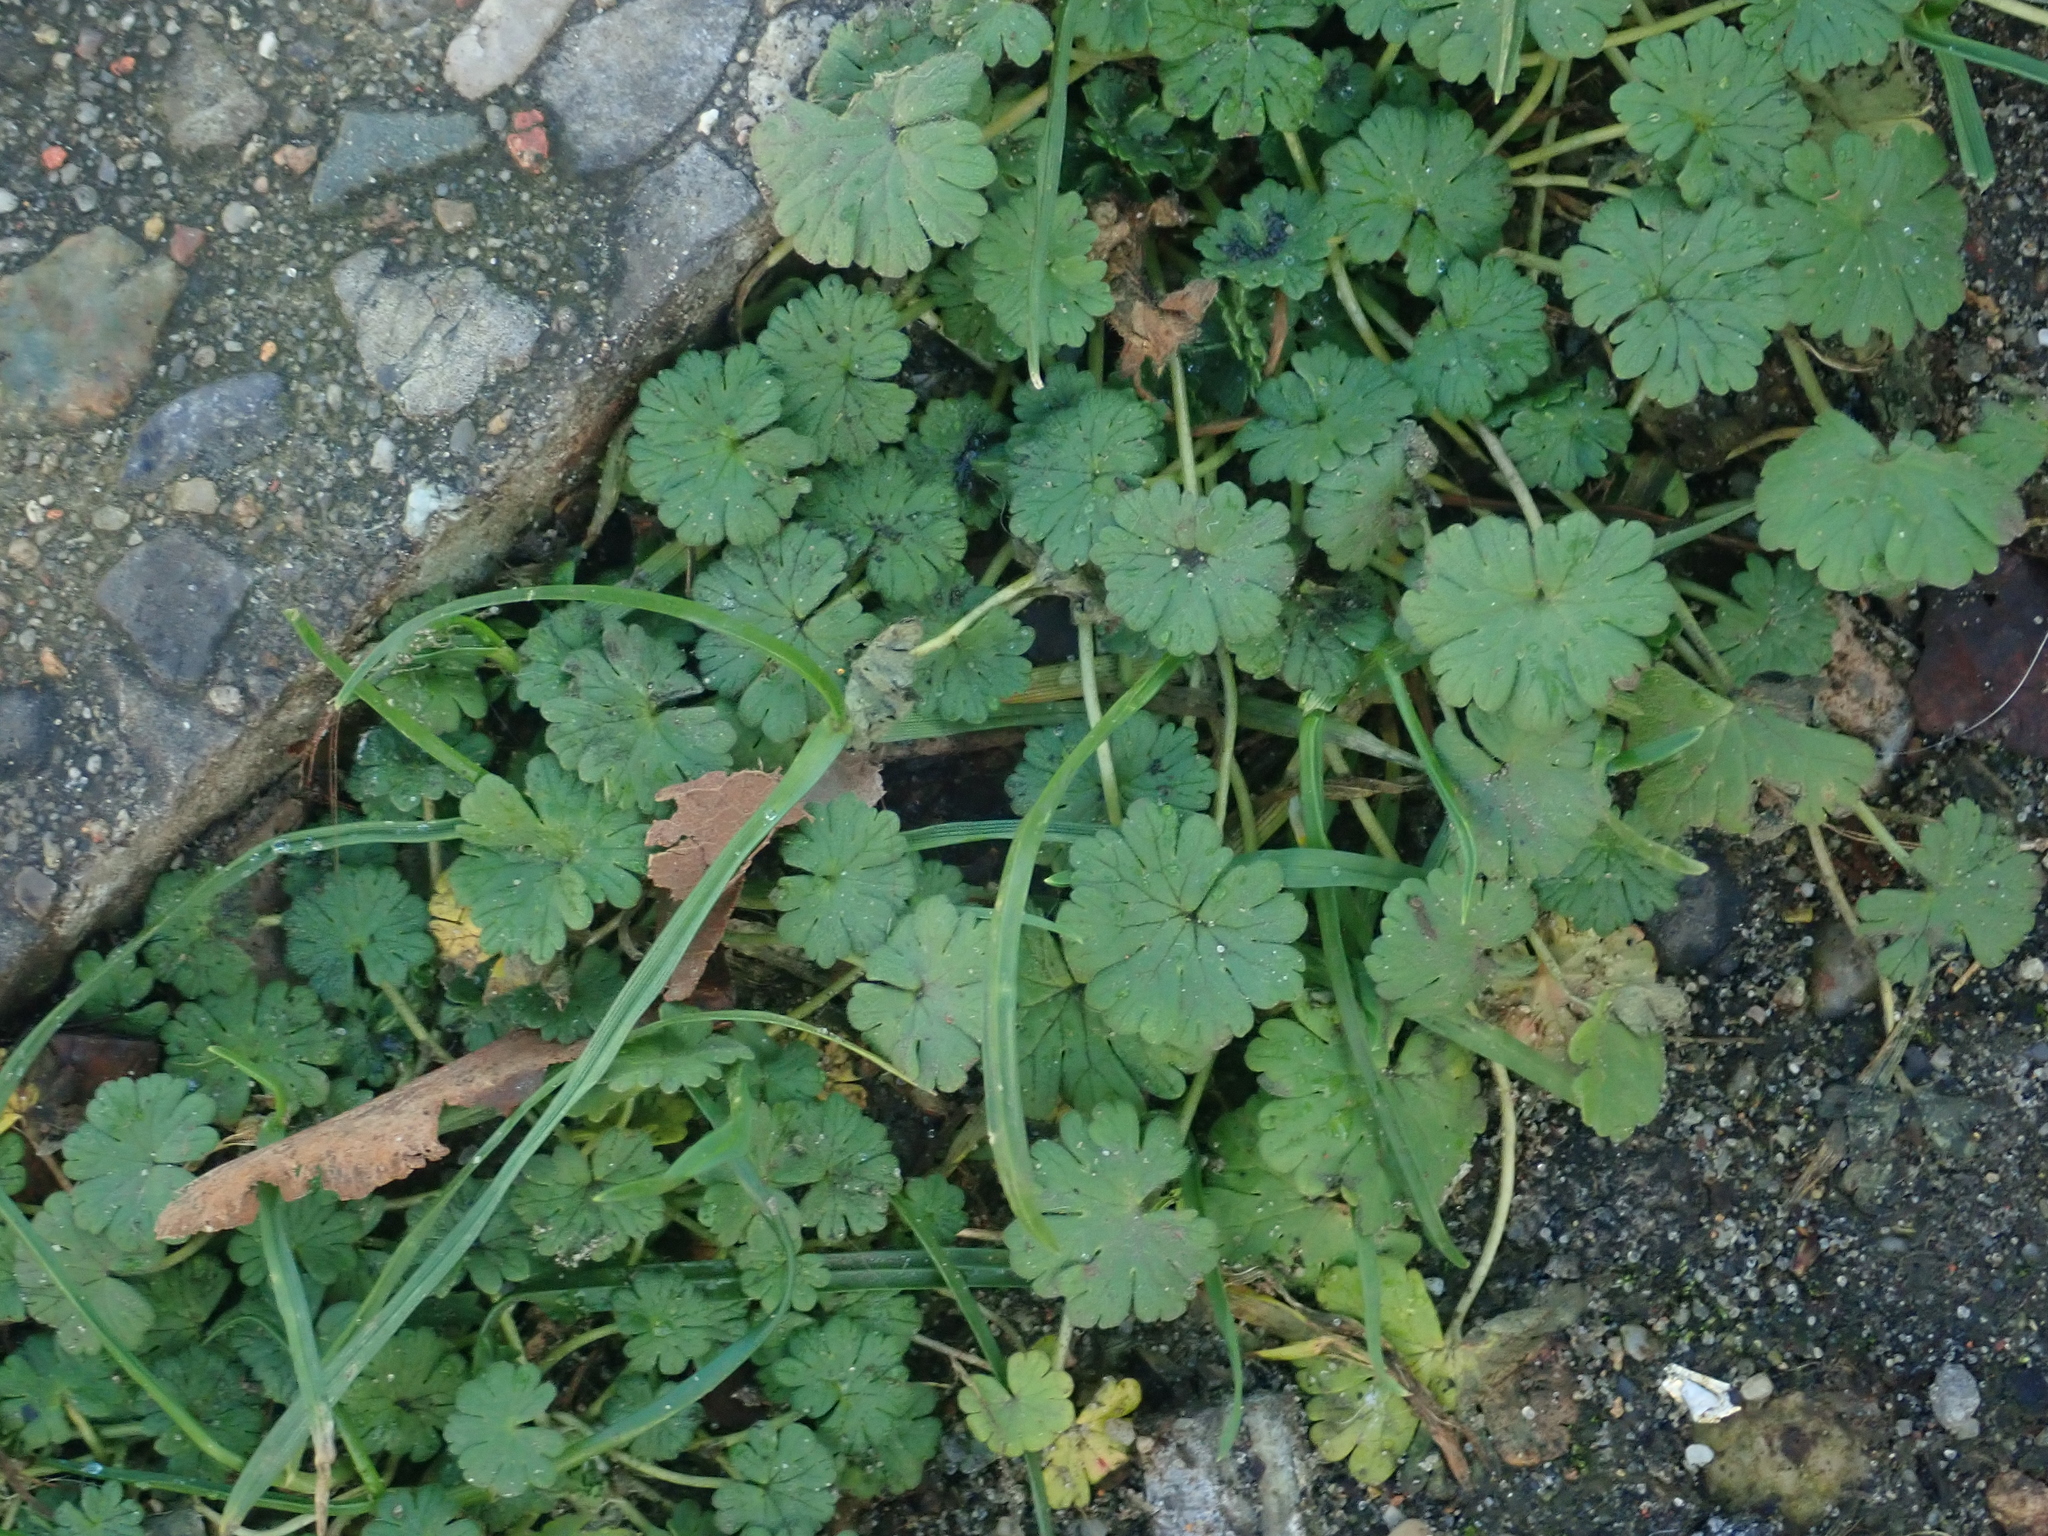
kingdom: Plantae
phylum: Tracheophyta
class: Magnoliopsida
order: Geraniales
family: Geraniaceae
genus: Geranium
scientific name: Geranium molle
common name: Dove's-foot crane's-bill
